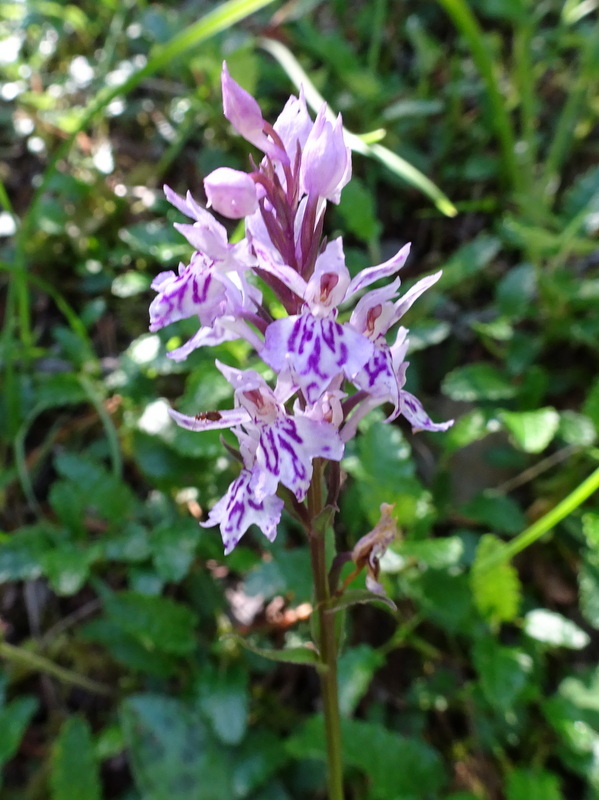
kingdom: Plantae
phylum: Tracheophyta
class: Liliopsida
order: Asparagales
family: Orchidaceae
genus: Dactylorhiza
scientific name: Dactylorhiza maculata
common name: Heath spotted-orchid
